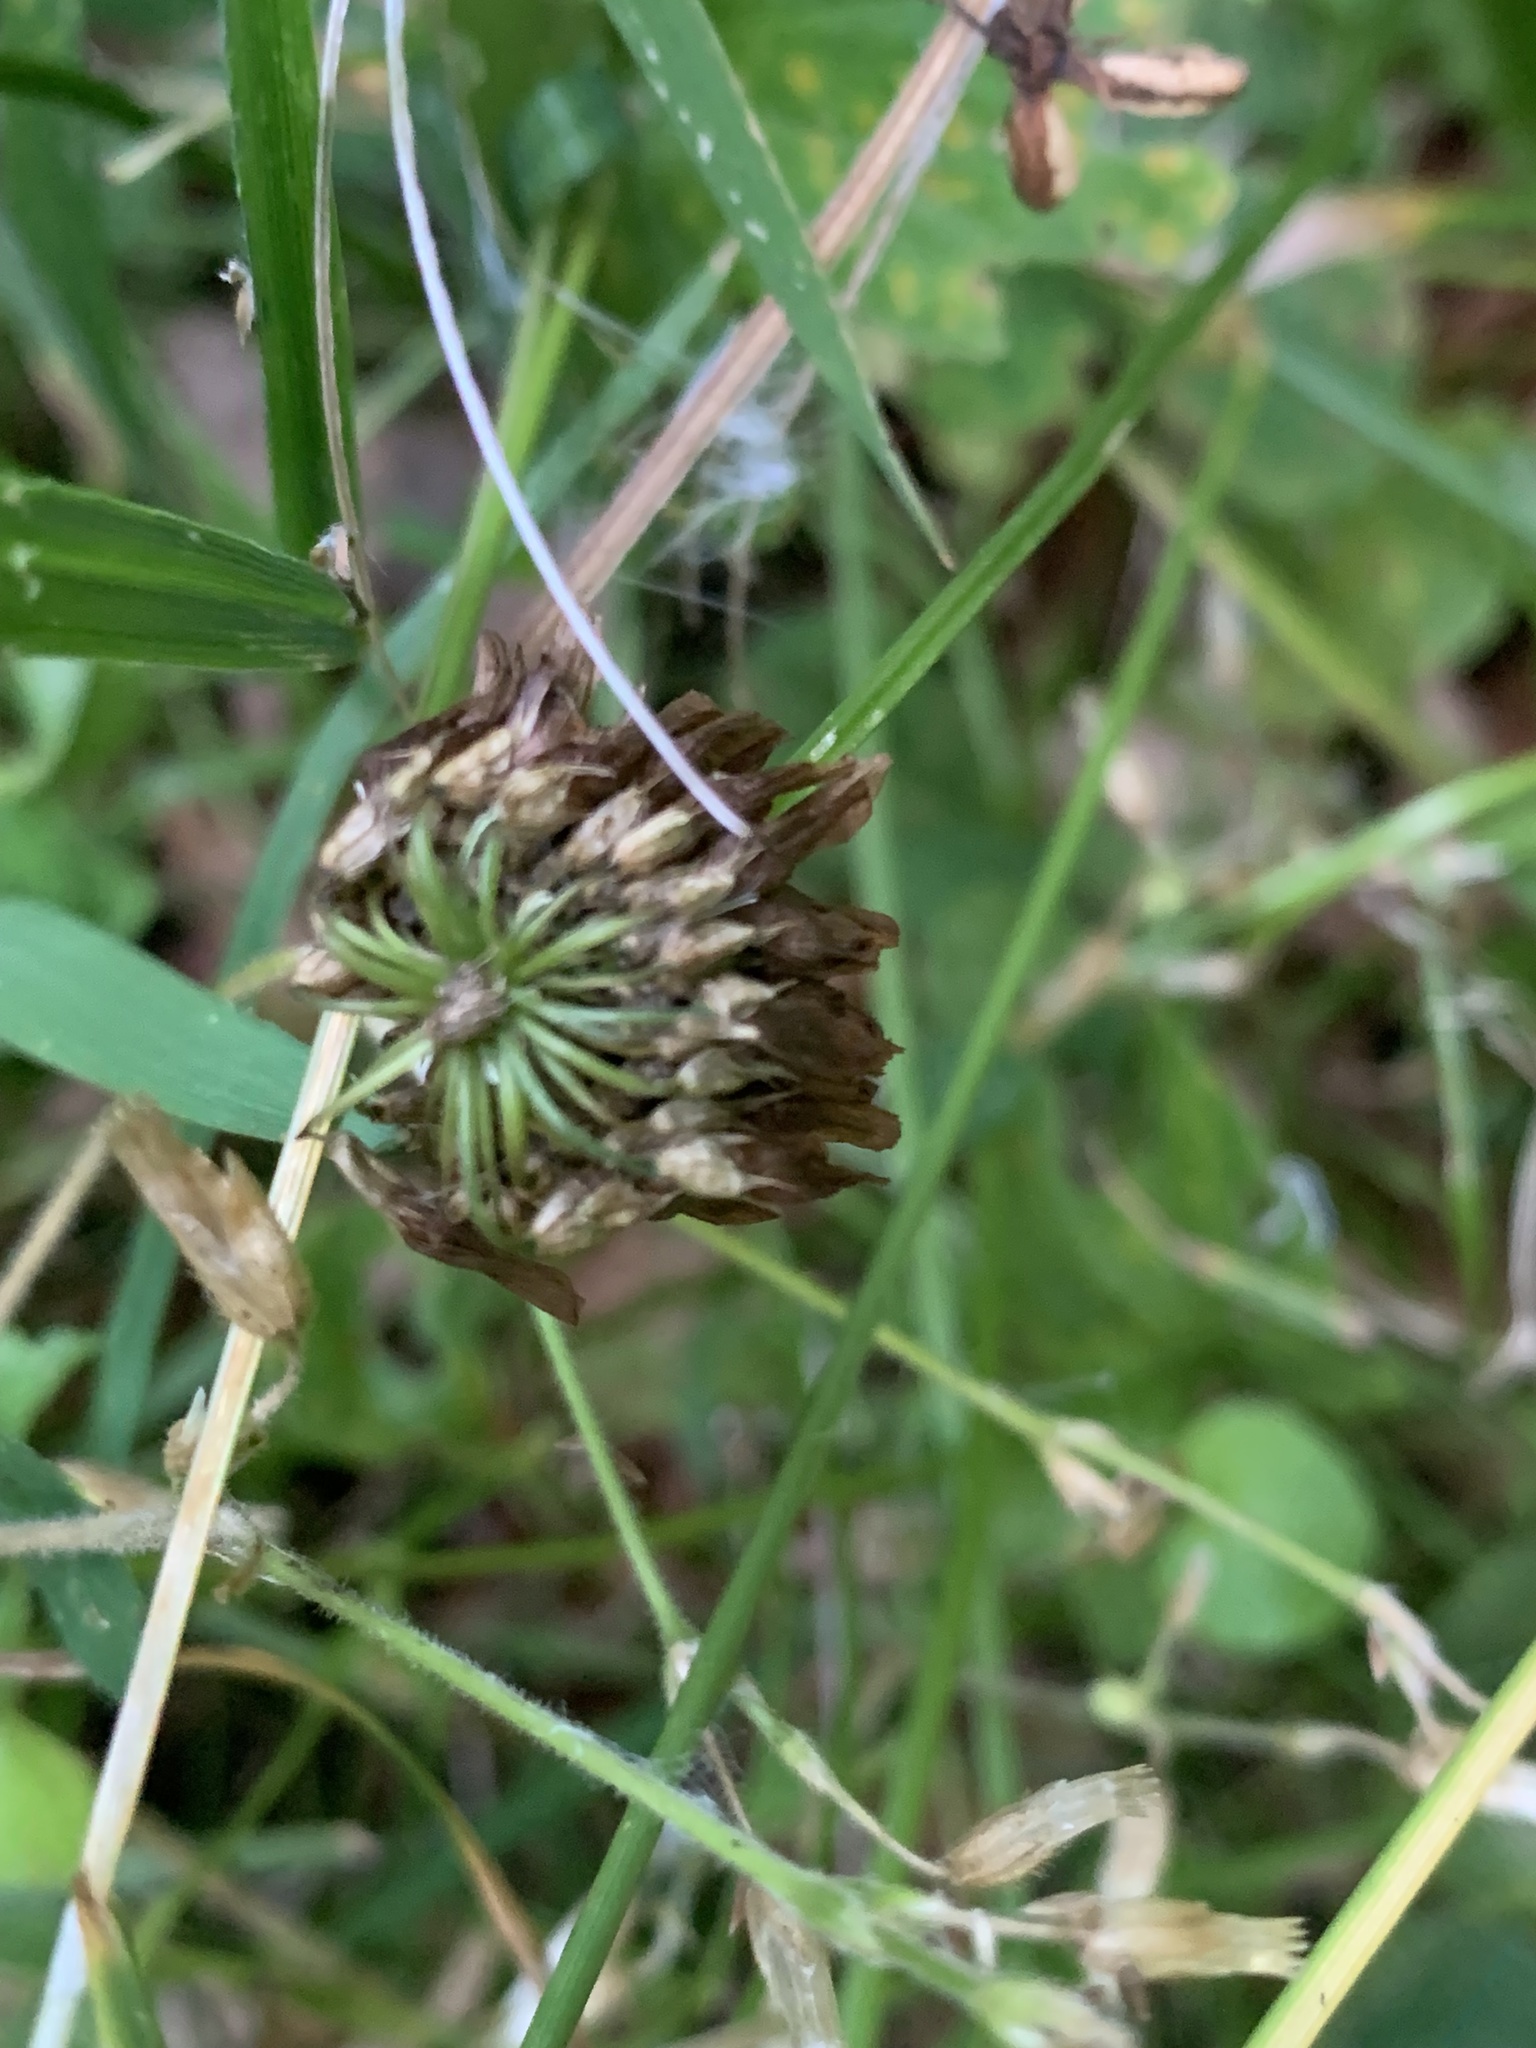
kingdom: Plantae
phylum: Tracheophyta
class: Magnoliopsida
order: Fabales
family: Fabaceae
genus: Trifolium
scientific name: Trifolium hybridum
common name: Alsike clover
